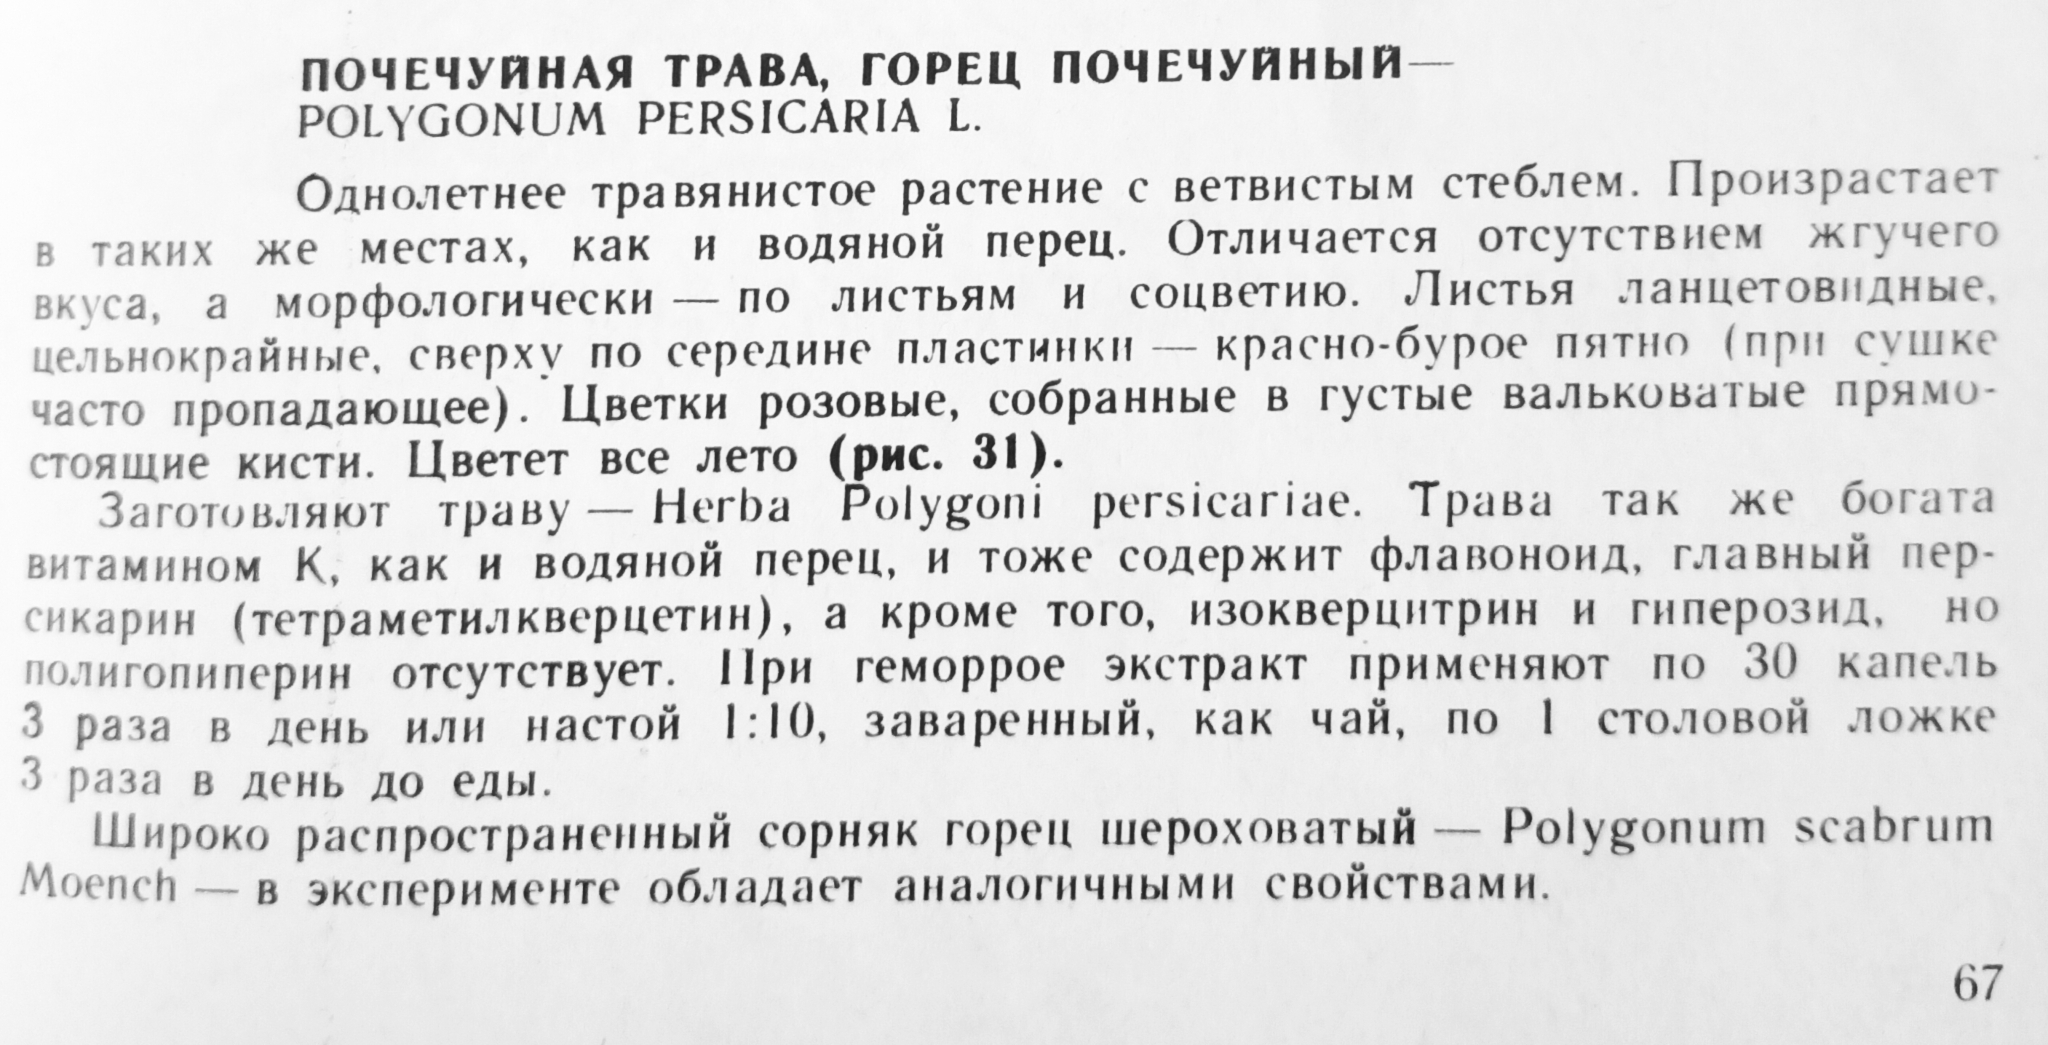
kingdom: Plantae
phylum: Tracheophyta
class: Magnoliopsida
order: Caryophyllales
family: Polygonaceae
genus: Persicaria
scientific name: Persicaria maculosa
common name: Redshank
